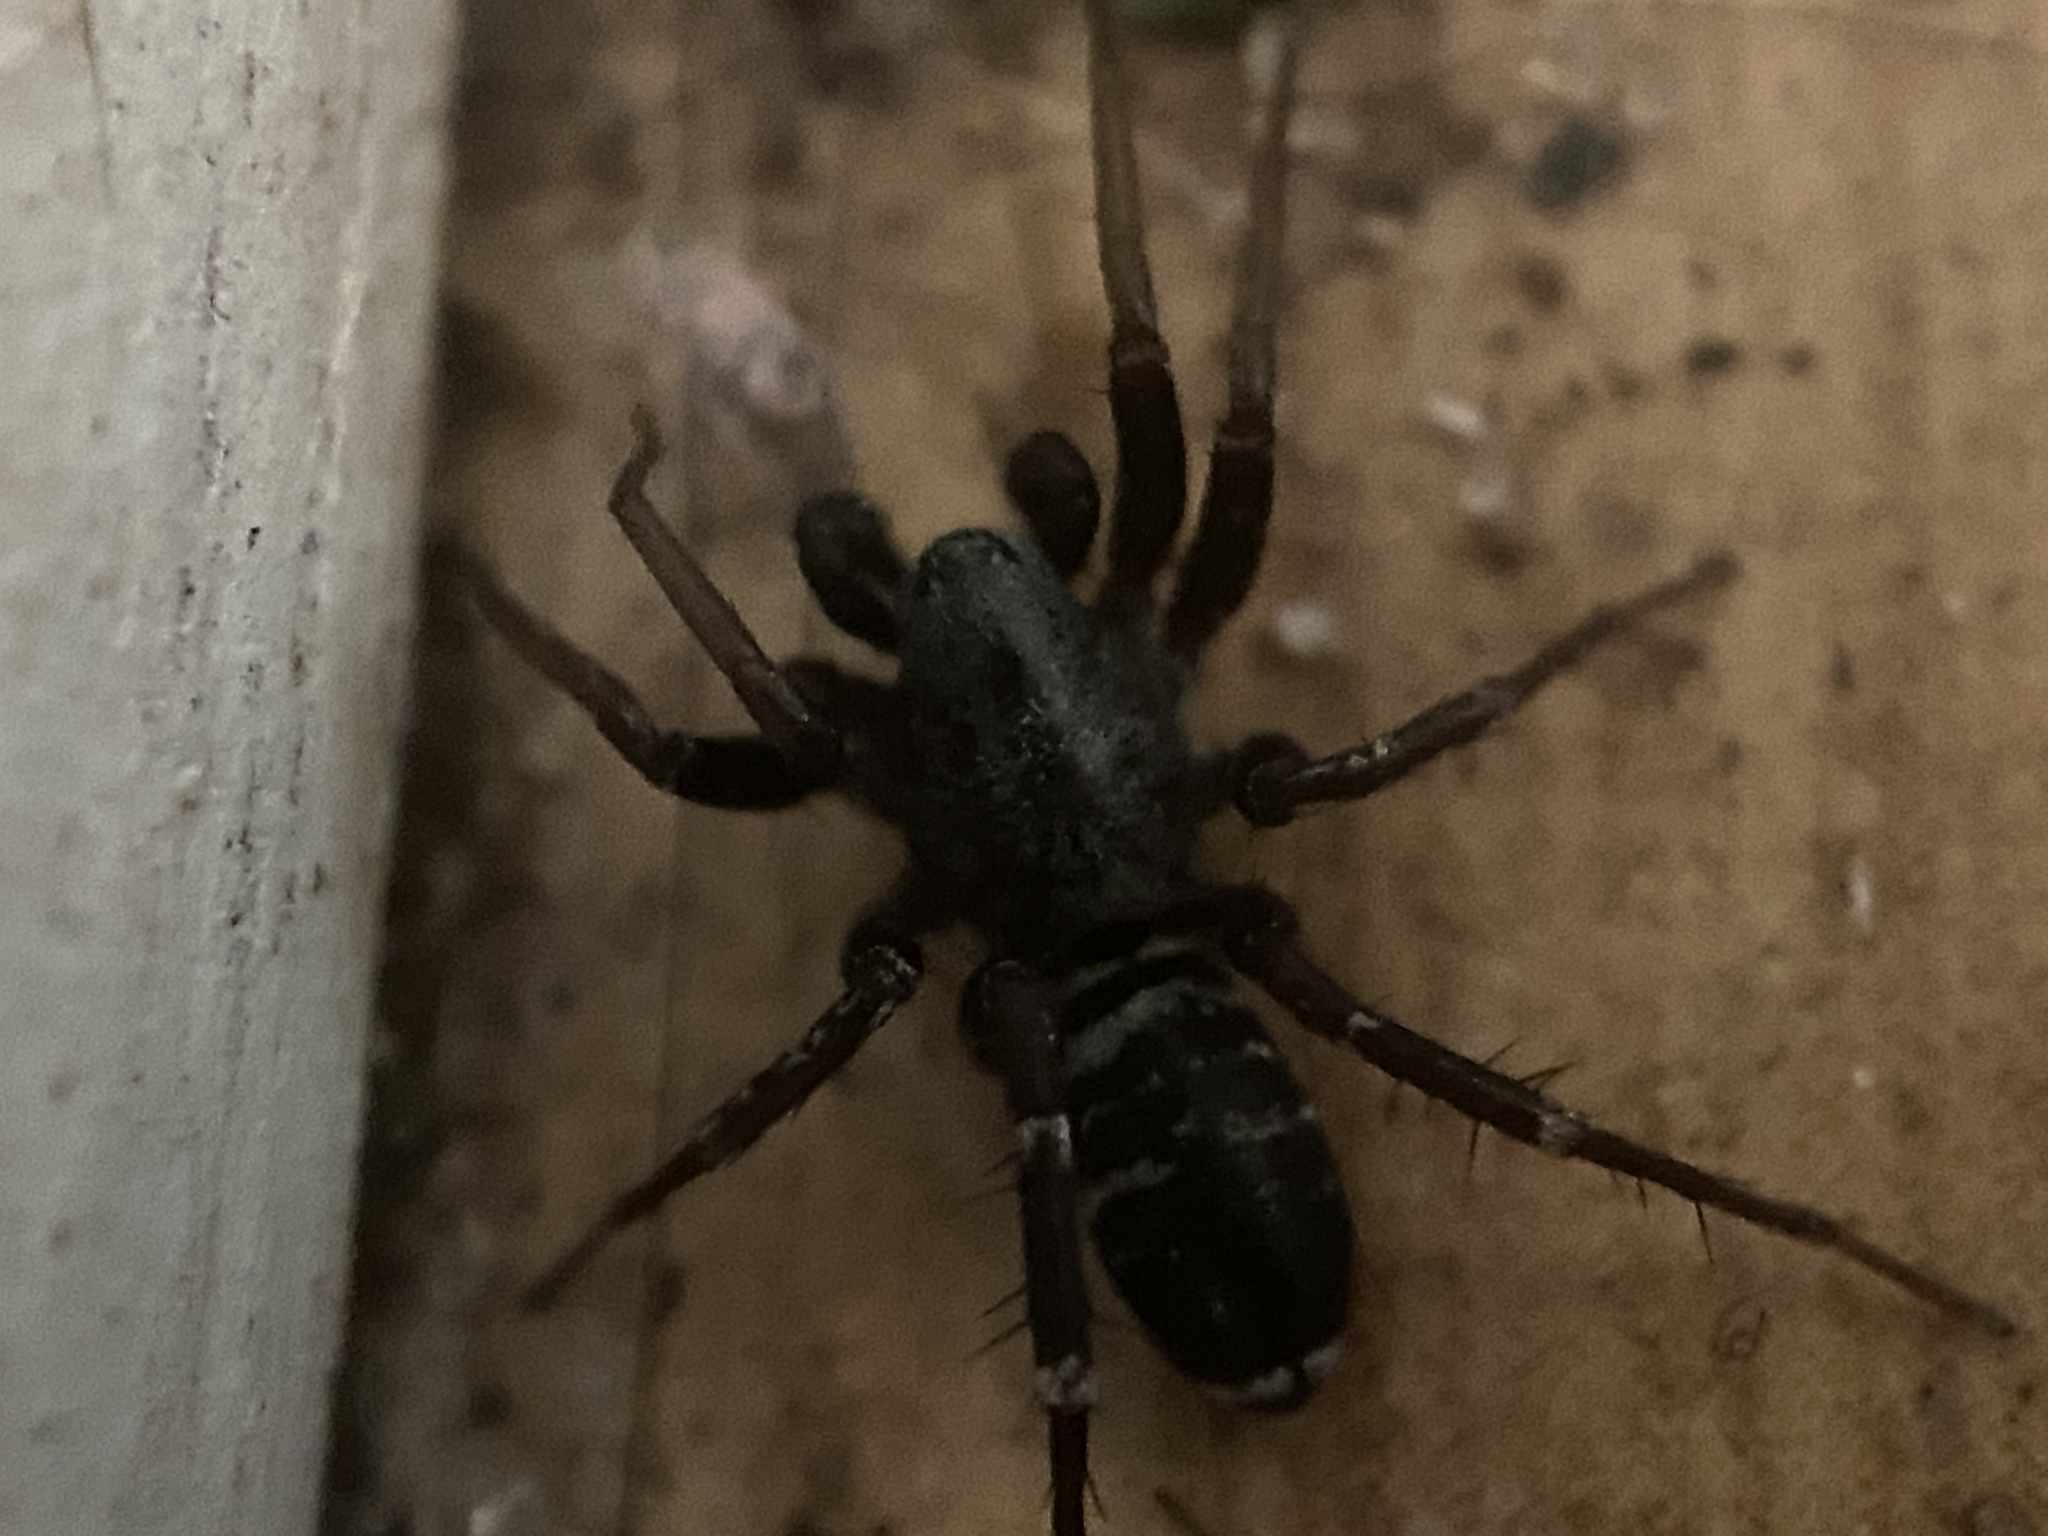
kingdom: Animalia
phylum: Arthropoda
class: Arachnida
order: Araneae
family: Corinnidae
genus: Castianeira
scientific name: Castianeira longipalpa
